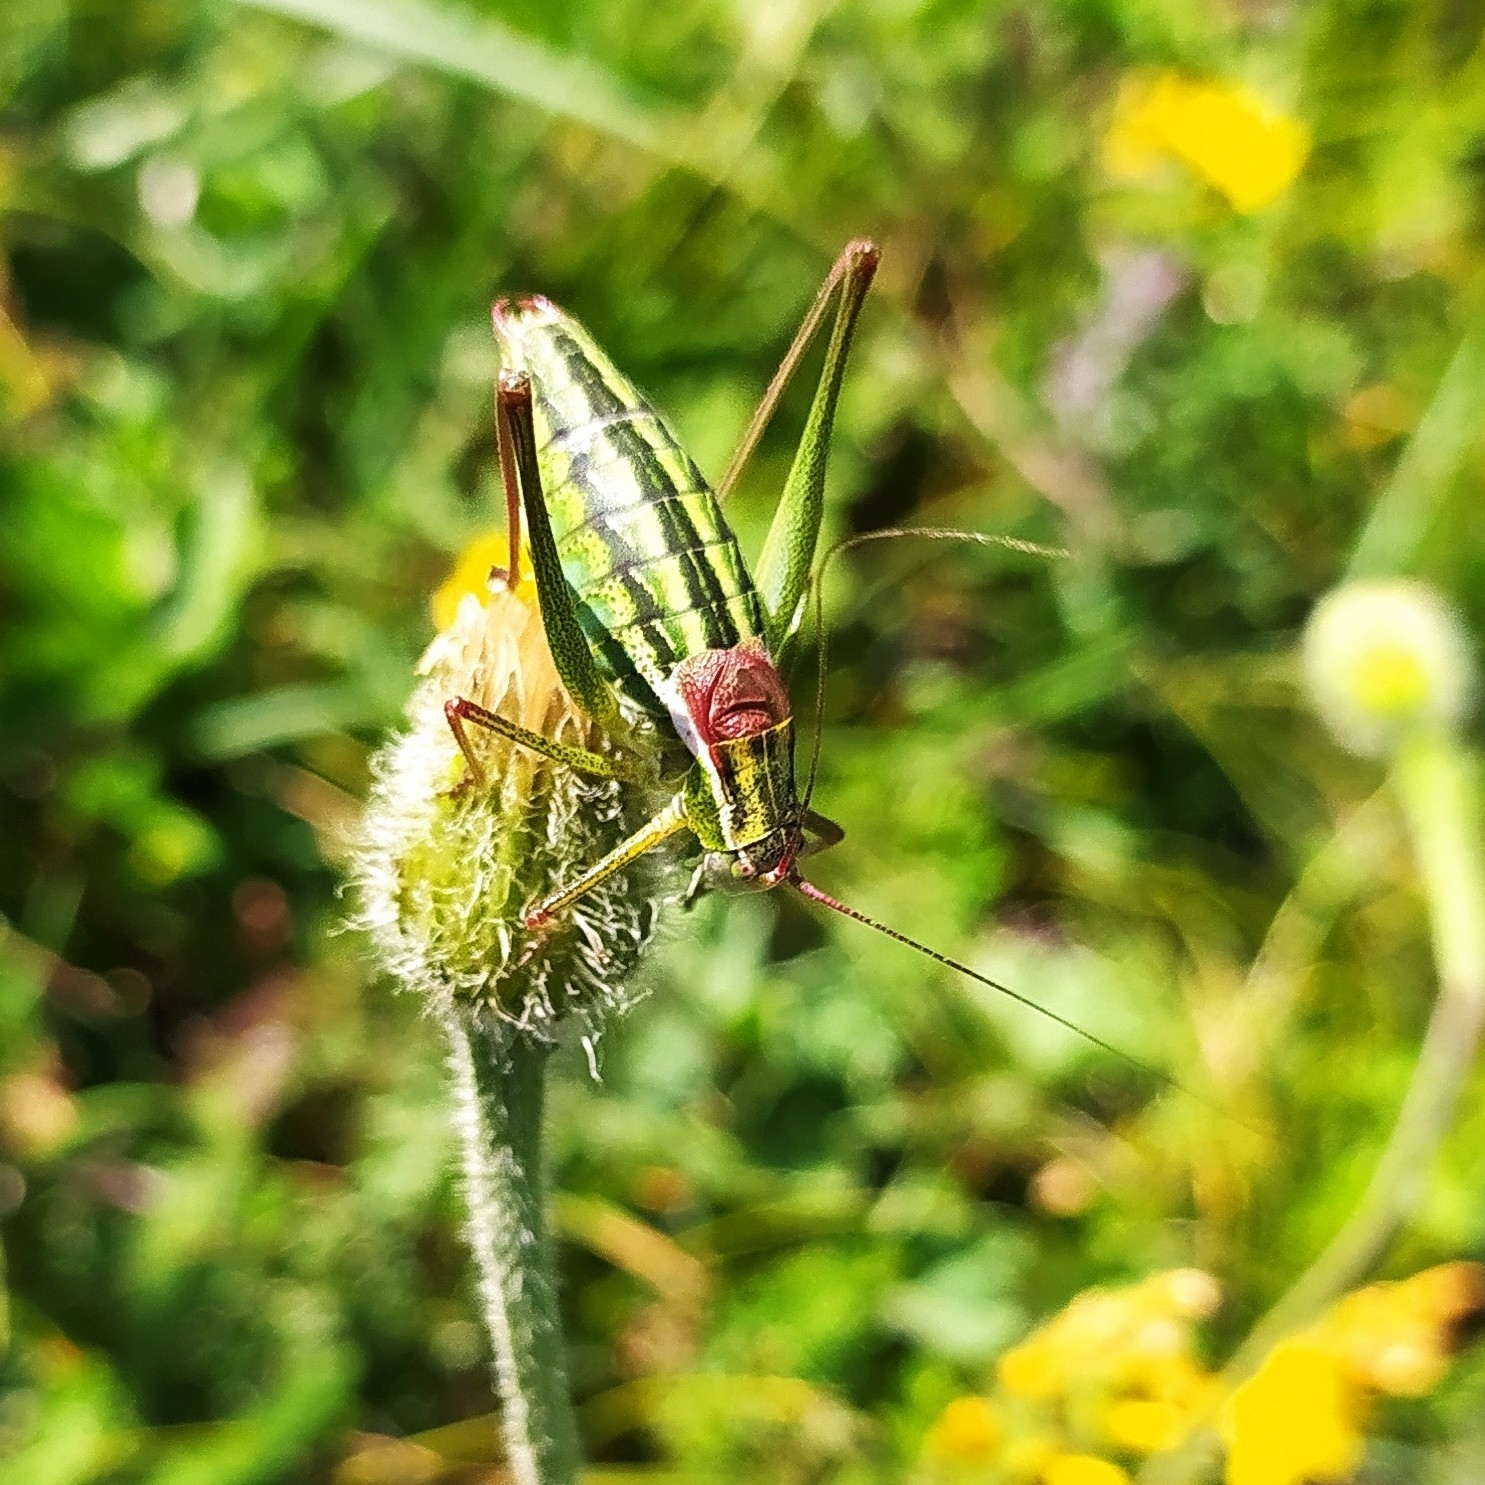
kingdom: Animalia
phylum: Arthropoda
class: Insecta
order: Orthoptera
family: Tettigoniidae
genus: Isophya
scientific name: Isophya taurica
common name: Krymean plump bush-cricket
